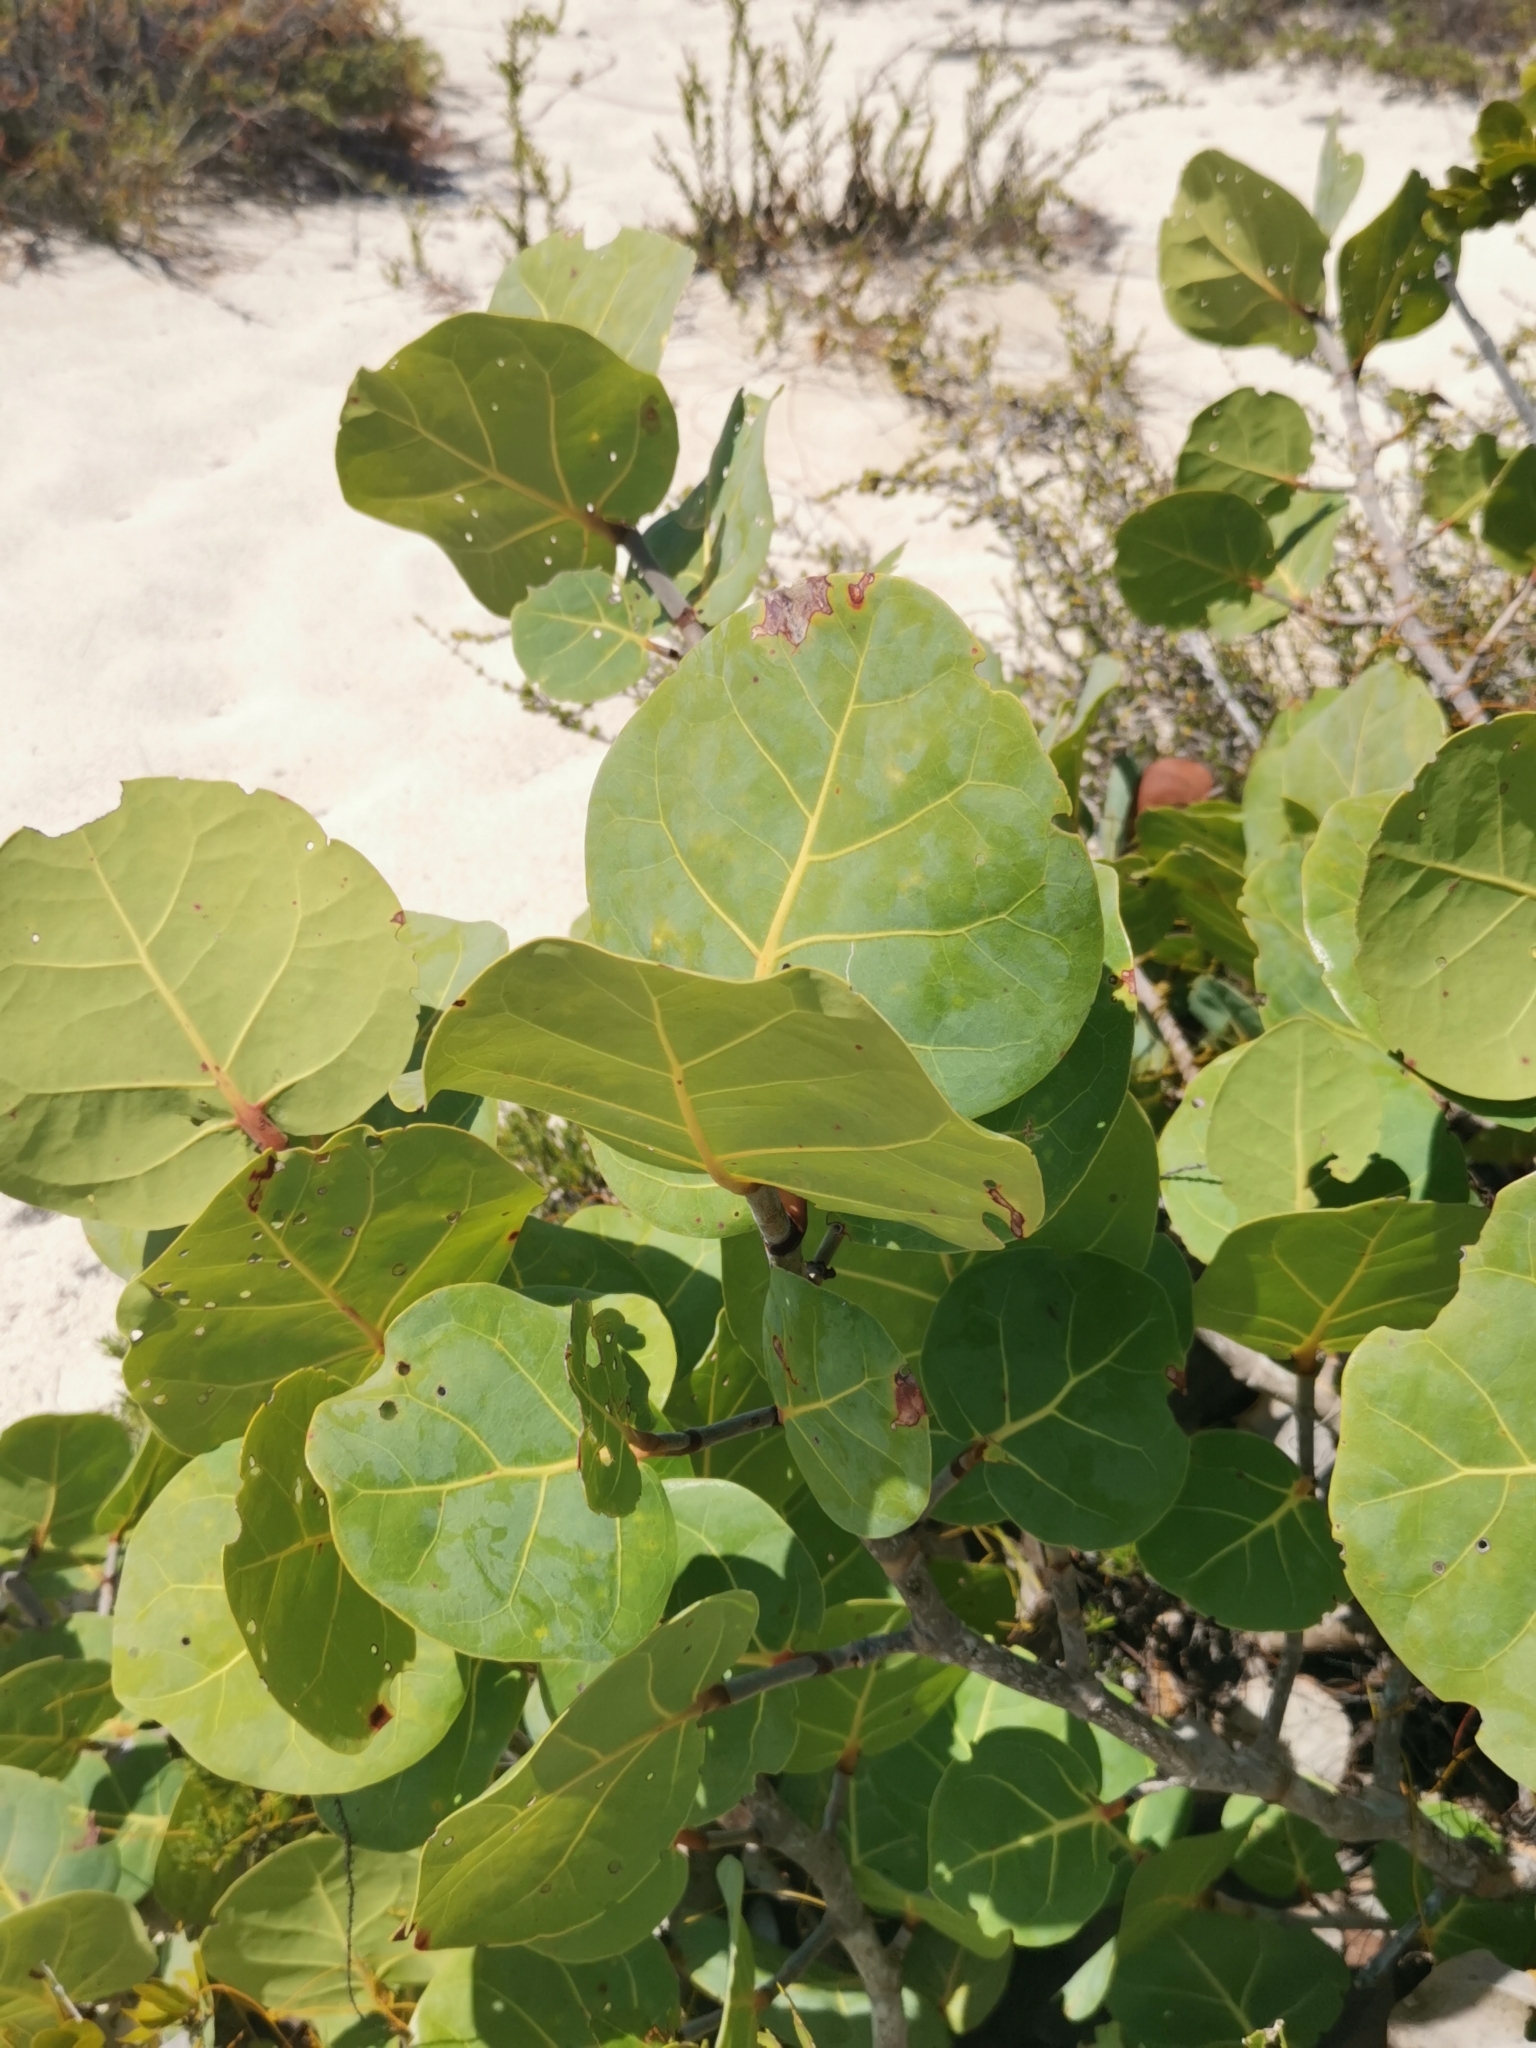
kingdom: Plantae
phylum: Tracheophyta
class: Magnoliopsida
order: Caryophyllales
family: Polygonaceae
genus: Coccoloba
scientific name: Coccoloba uvifera
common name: Seagrape
